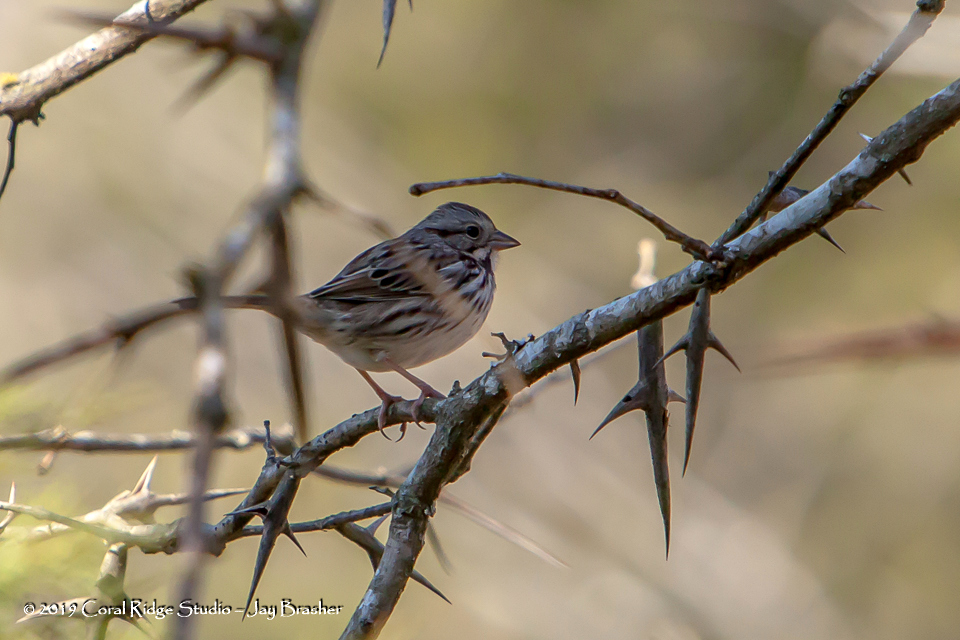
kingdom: Animalia
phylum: Chordata
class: Aves
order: Passeriformes
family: Passerellidae
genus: Melospiza
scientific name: Melospiza melodia
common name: Song sparrow
